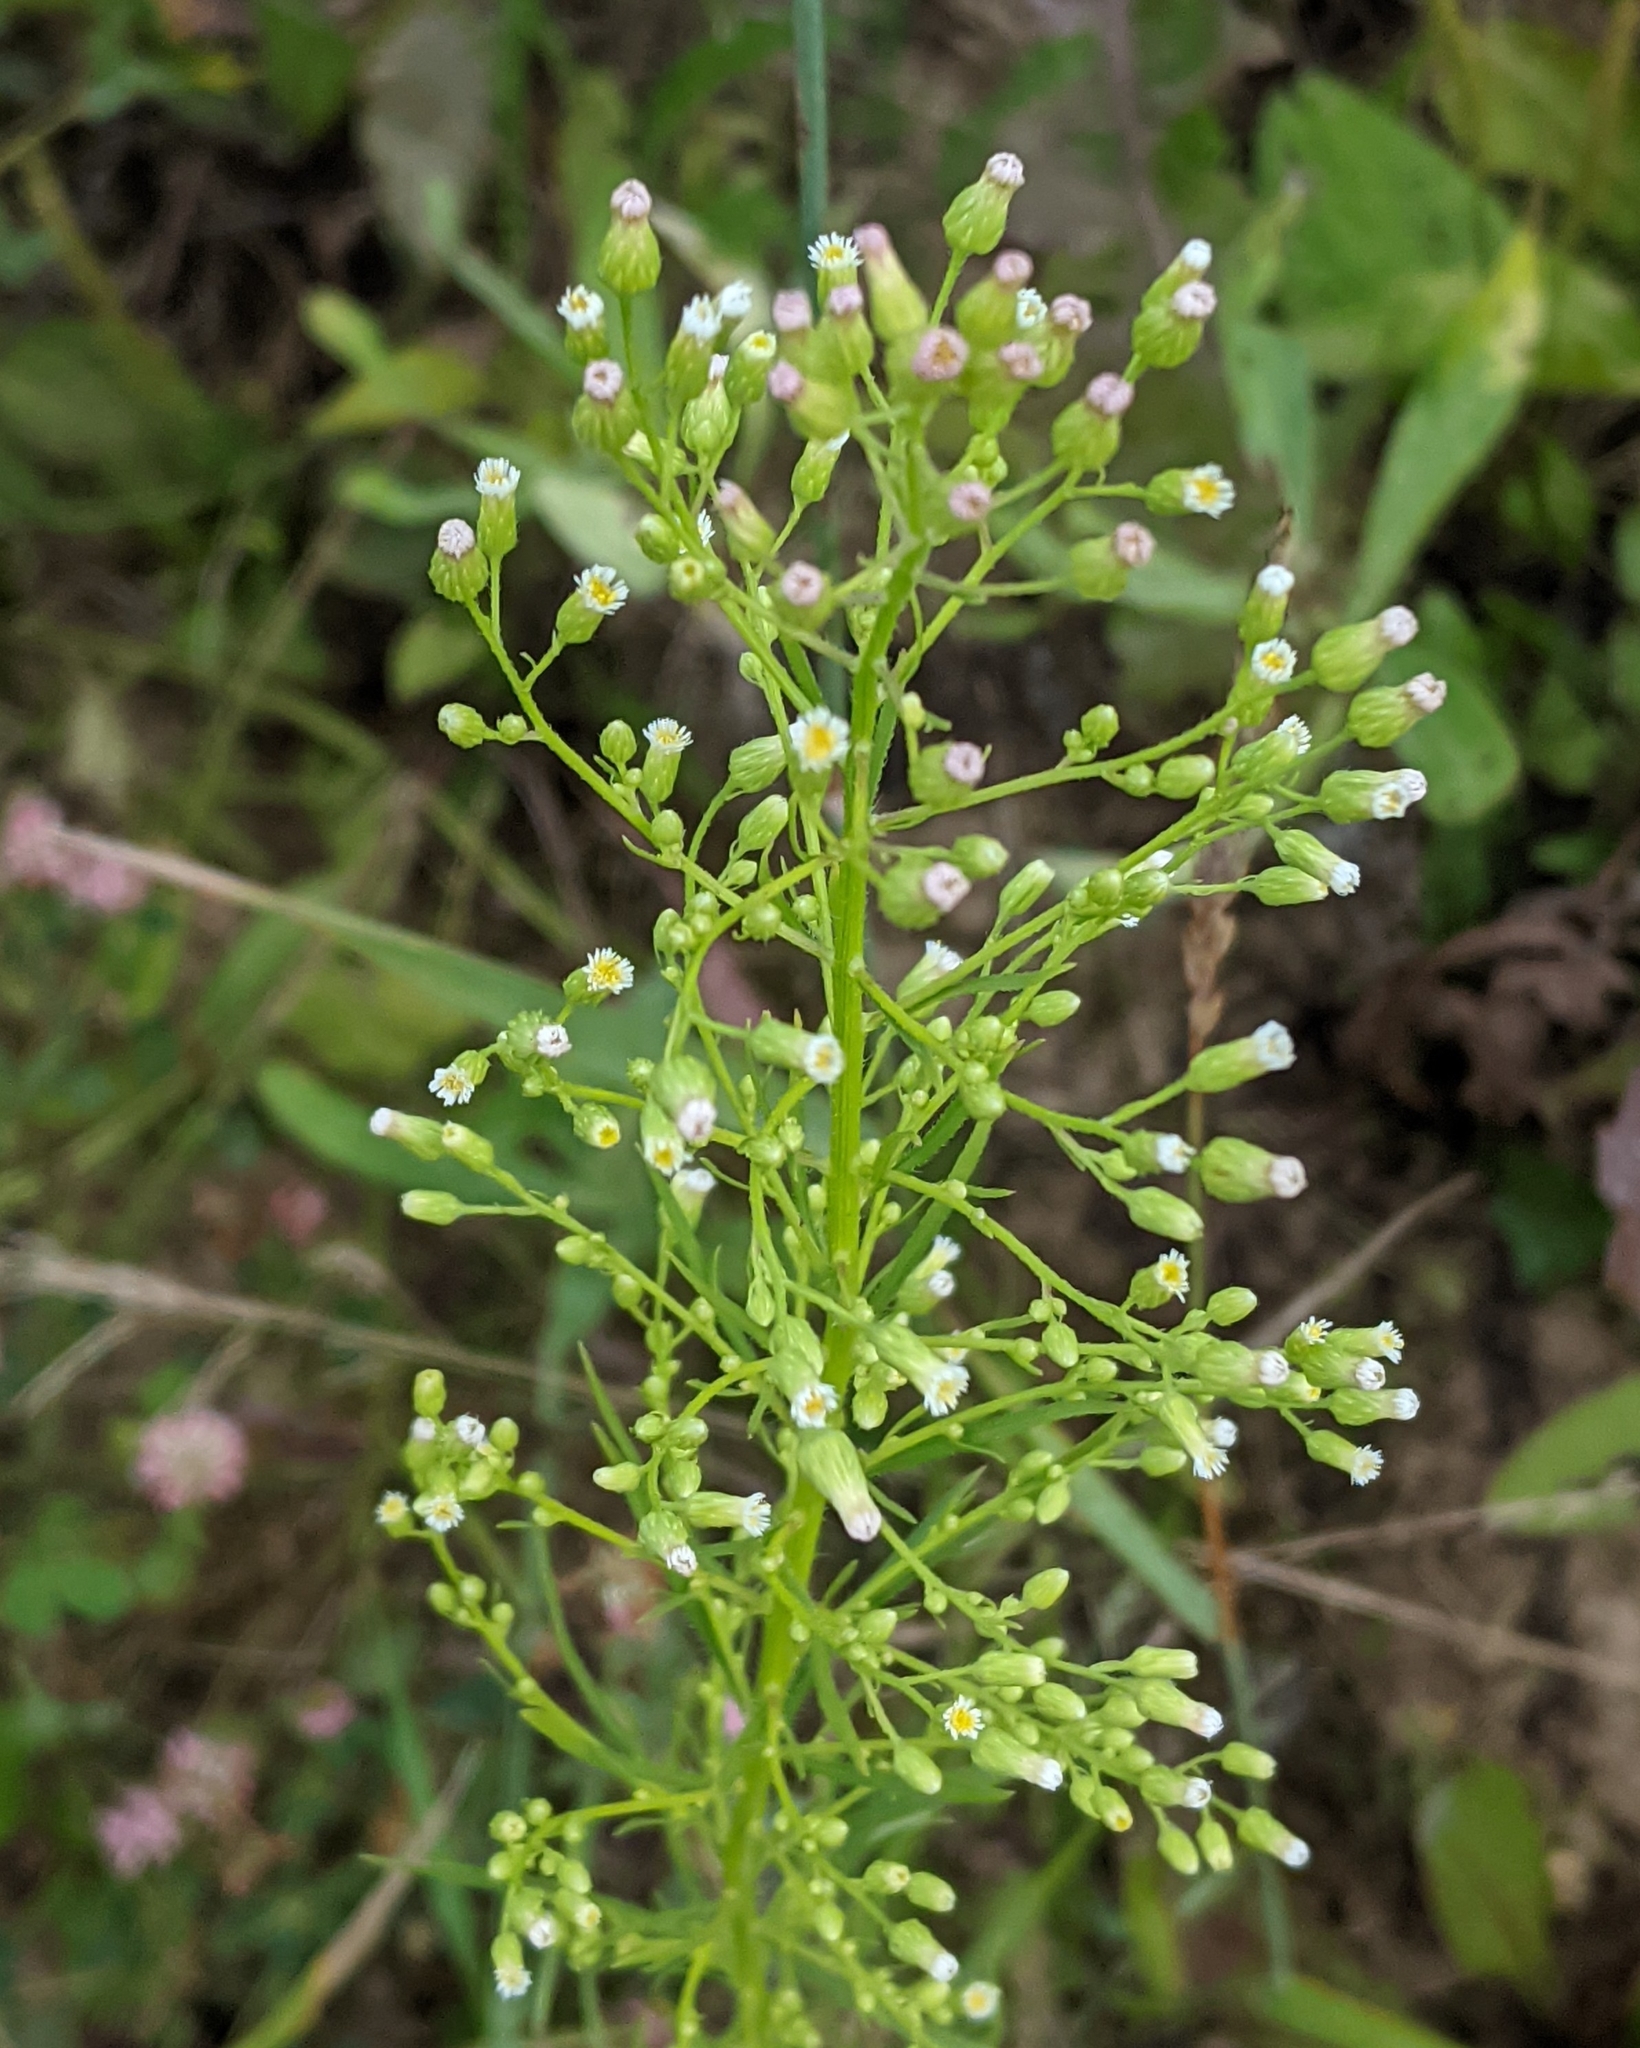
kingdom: Plantae
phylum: Tracheophyta
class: Magnoliopsida
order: Asterales
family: Asteraceae
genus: Erigeron
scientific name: Erigeron canadensis
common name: Canadian fleabane
